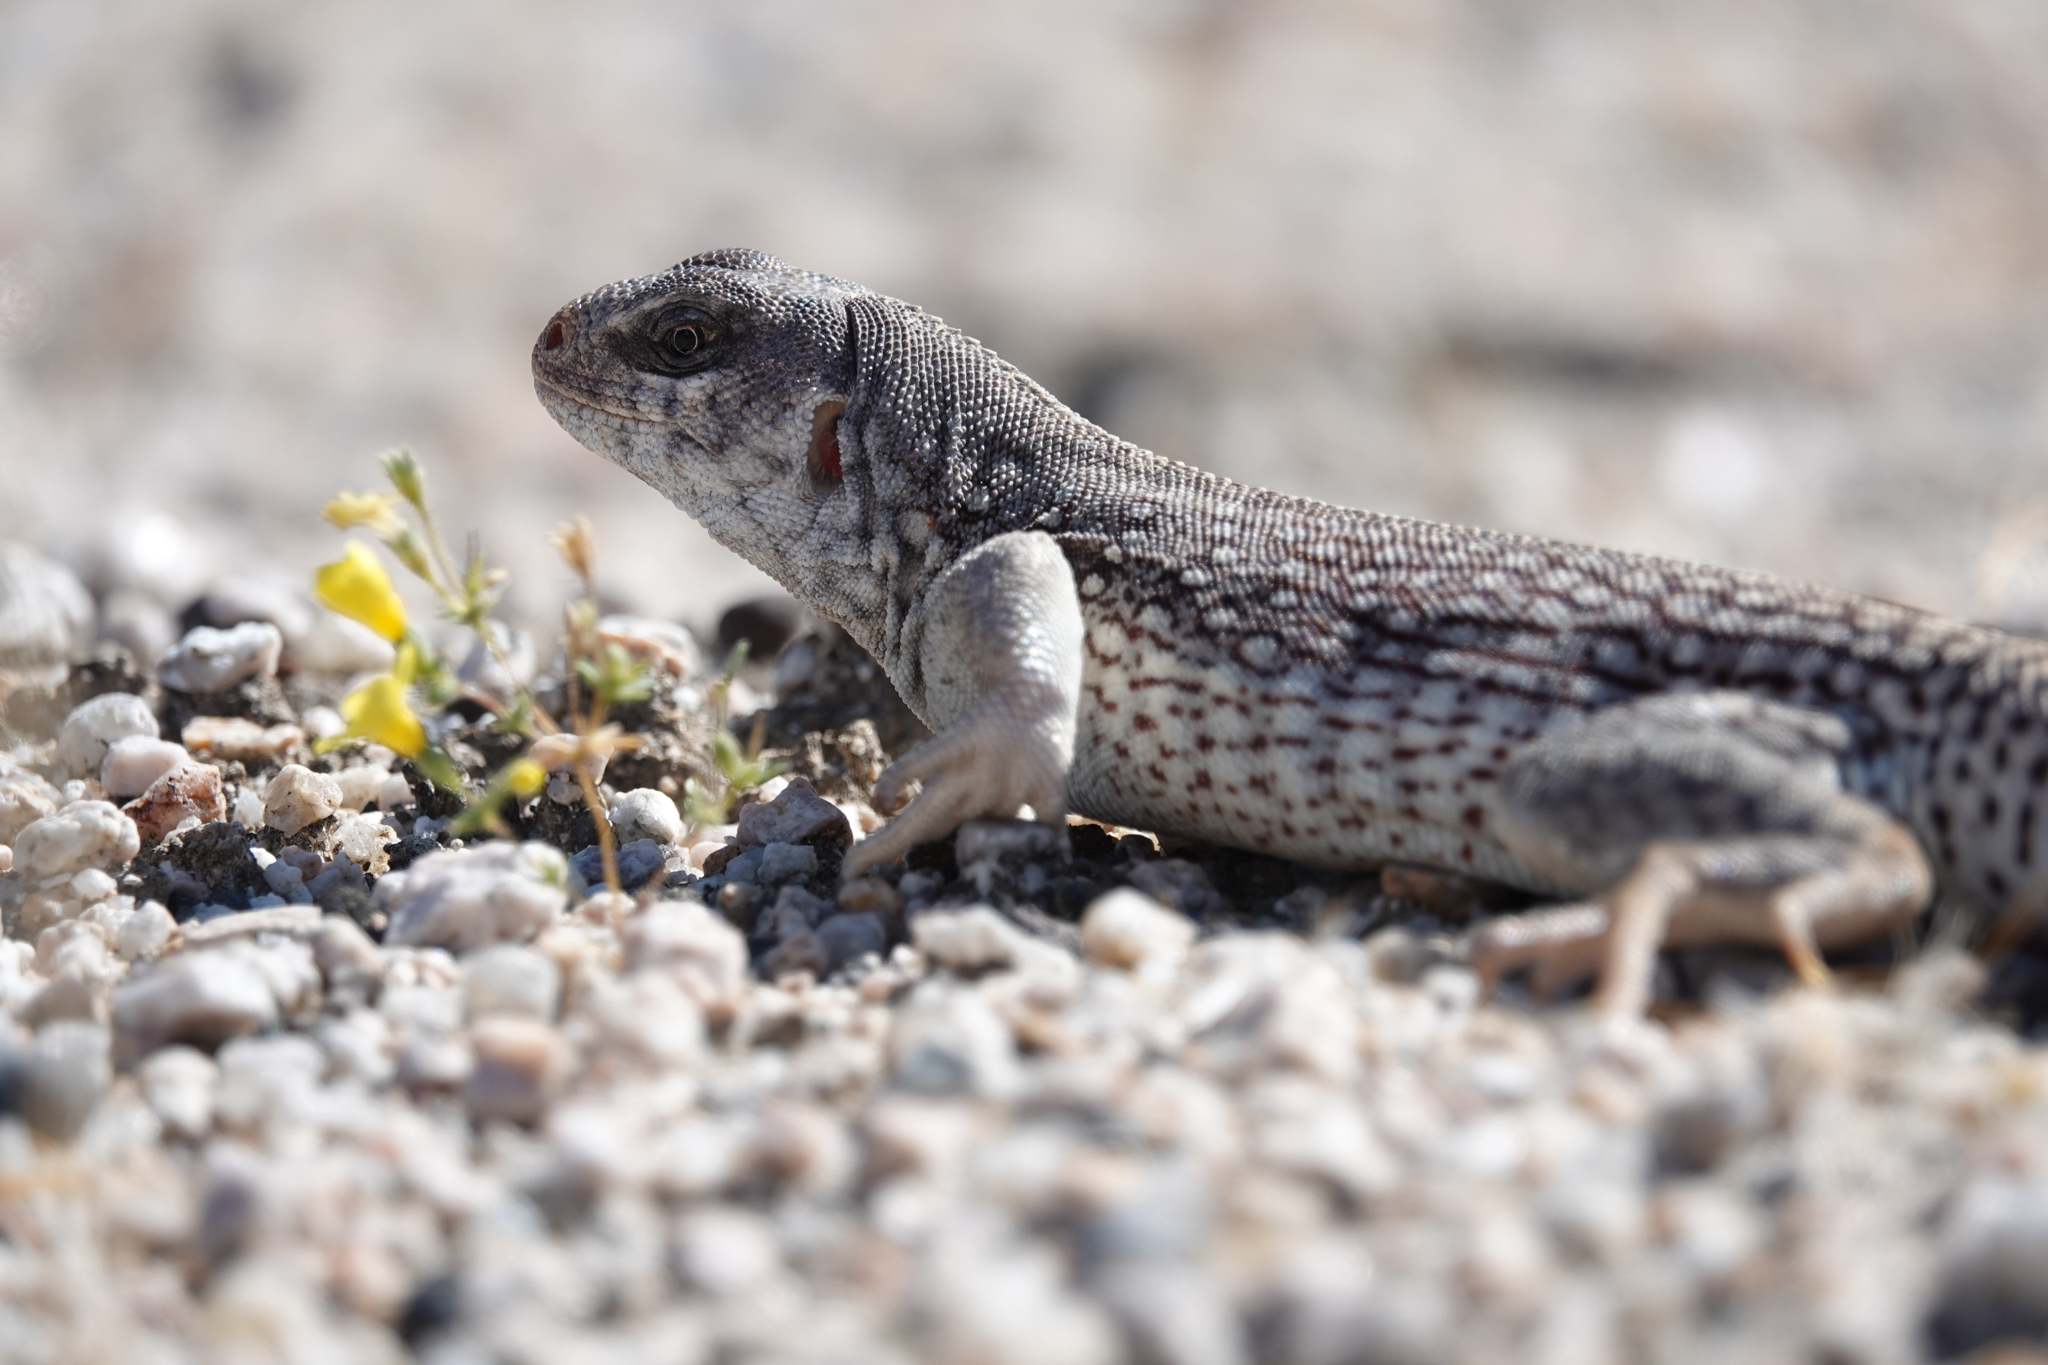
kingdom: Animalia
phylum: Chordata
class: Squamata
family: Iguanidae
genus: Dipsosaurus
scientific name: Dipsosaurus dorsalis
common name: Desert iguana
